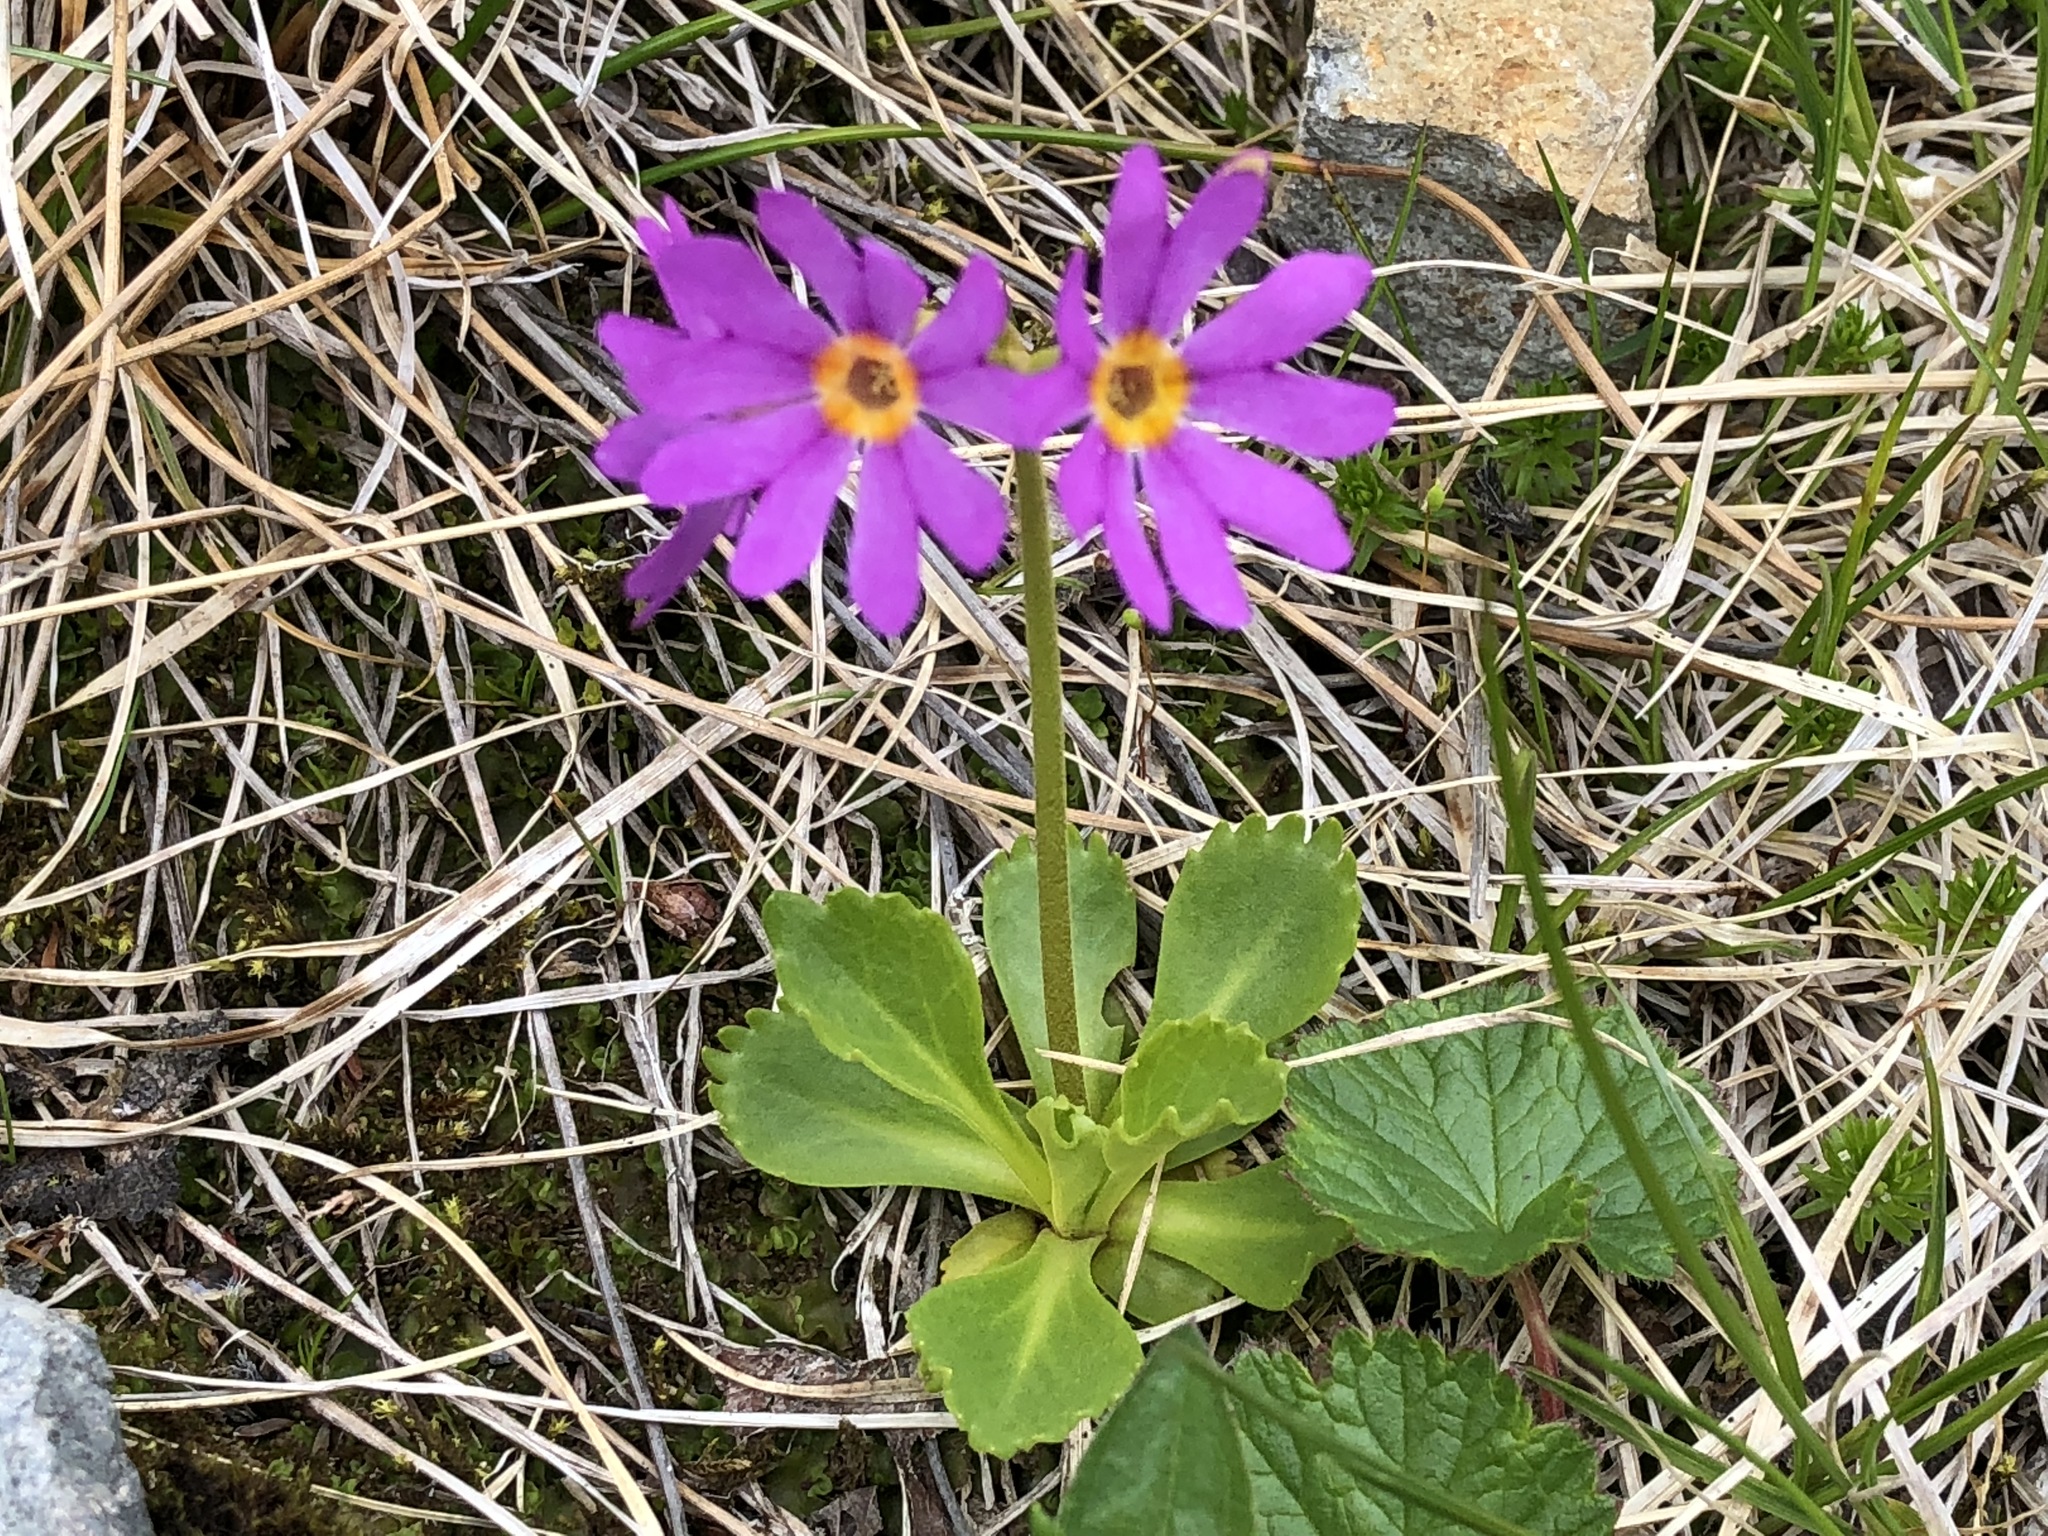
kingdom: Plantae
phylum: Tracheophyta
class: Magnoliopsida
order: Ericales
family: Primulaceae
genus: Primula
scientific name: Primula cuneifolia
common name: Wedge-leaved primrose
